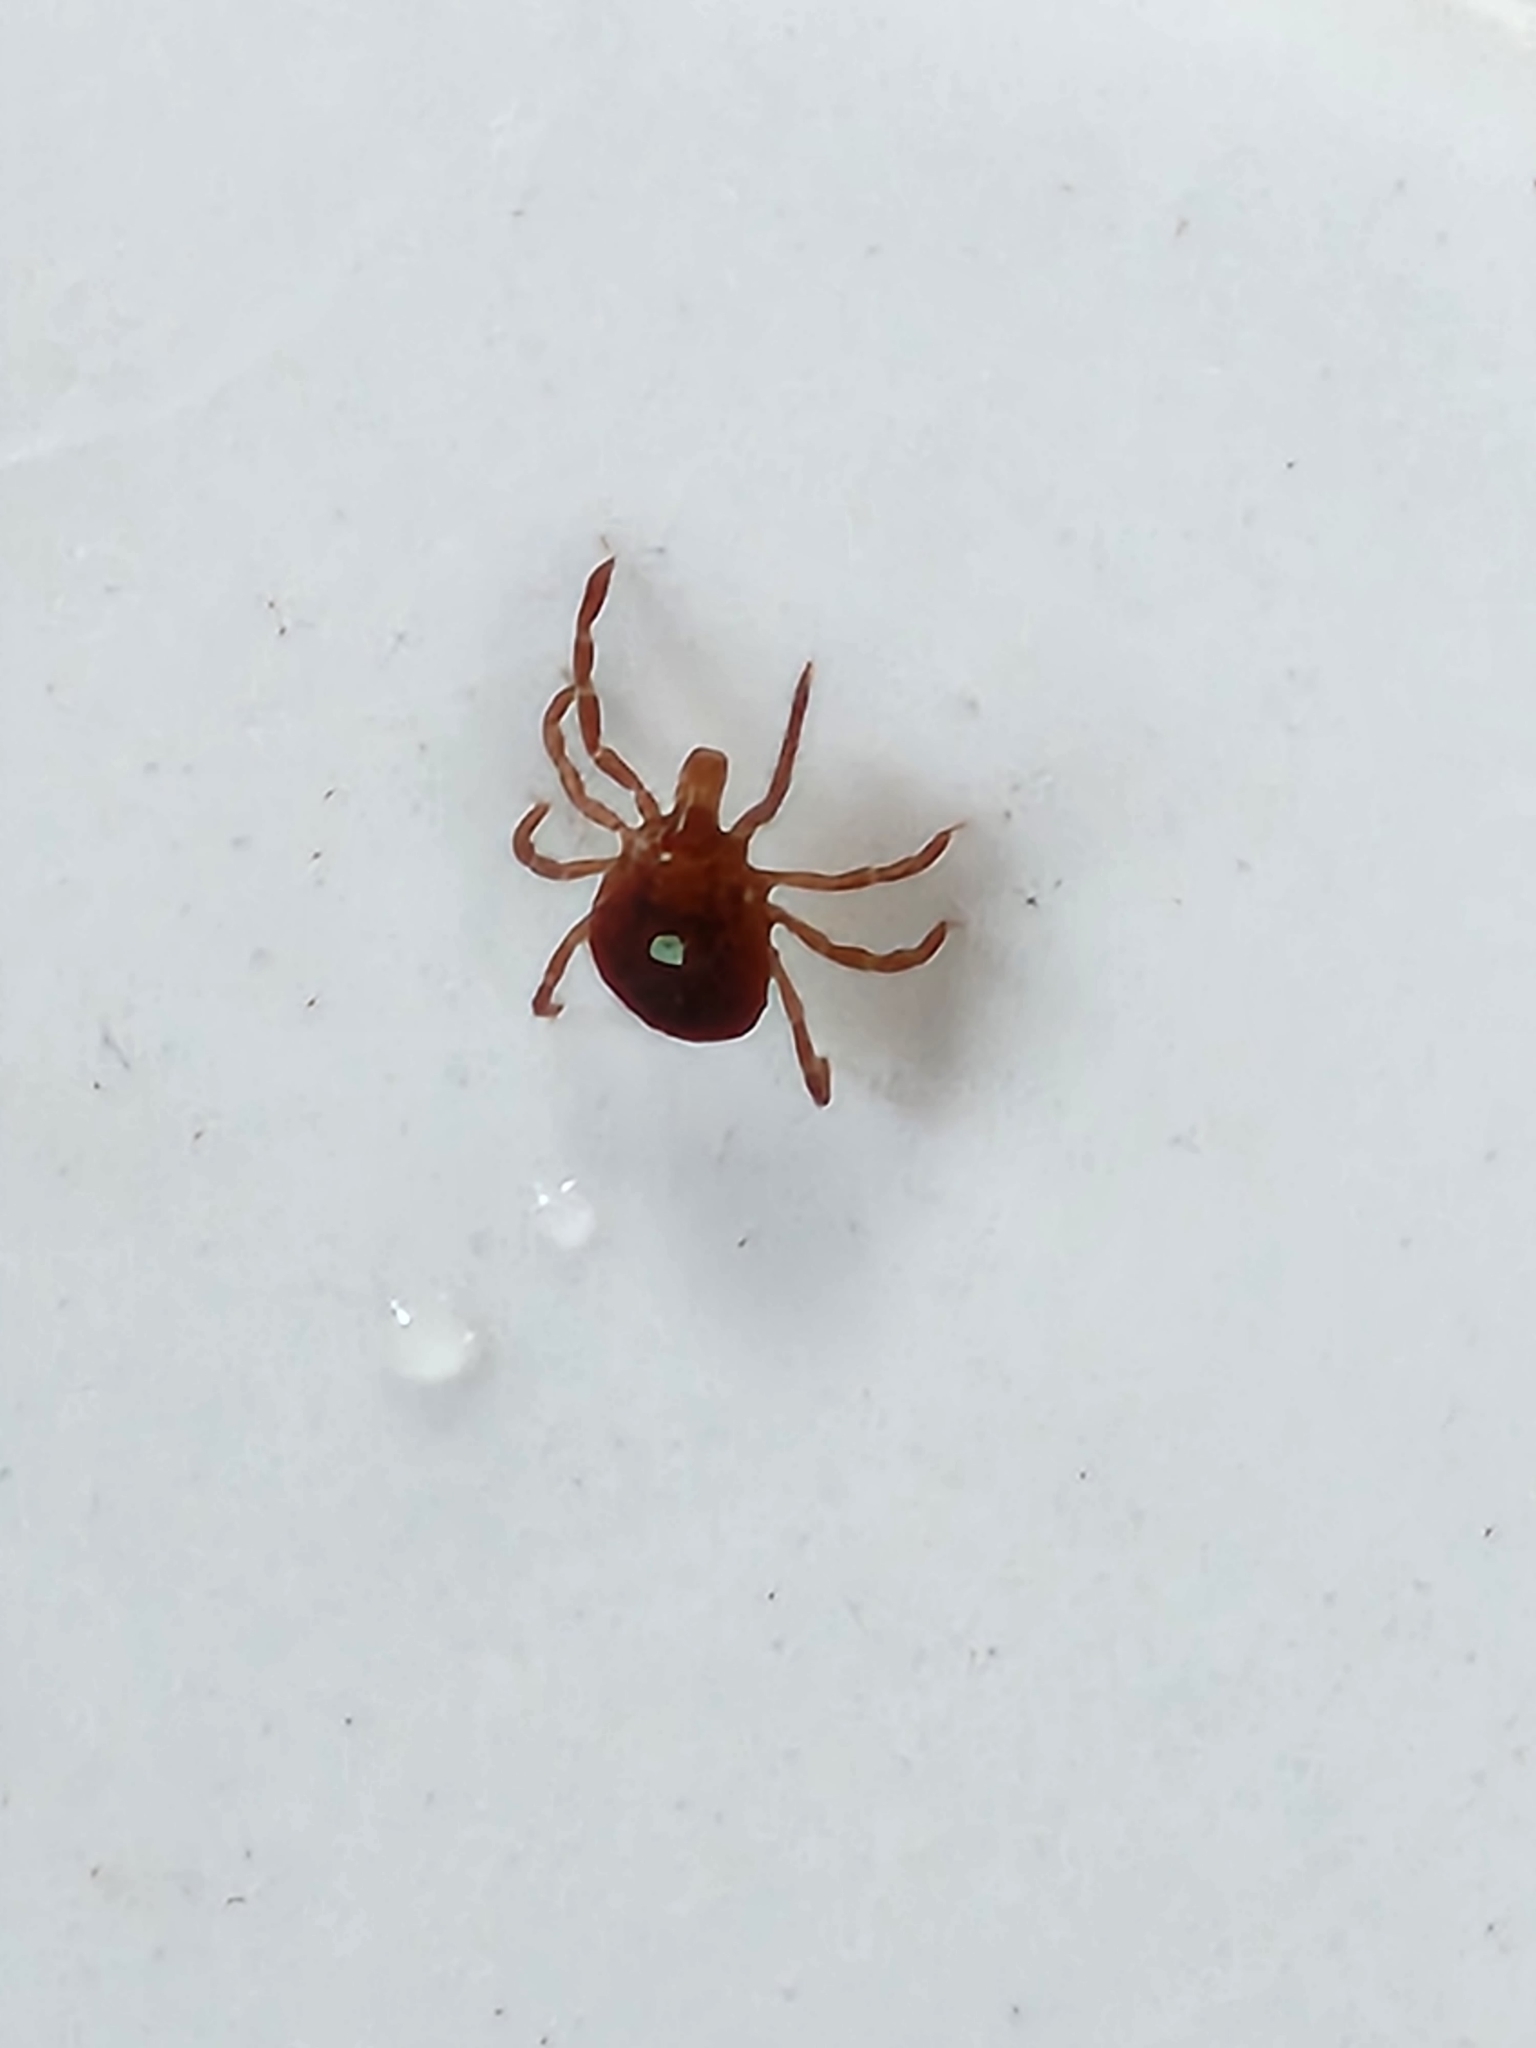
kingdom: Animalia
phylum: Arthropoda
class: Arachnida
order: Ixodida
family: Ixodidae
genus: Amblyomma
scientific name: Amblyomma americanum
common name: Lone star tick
